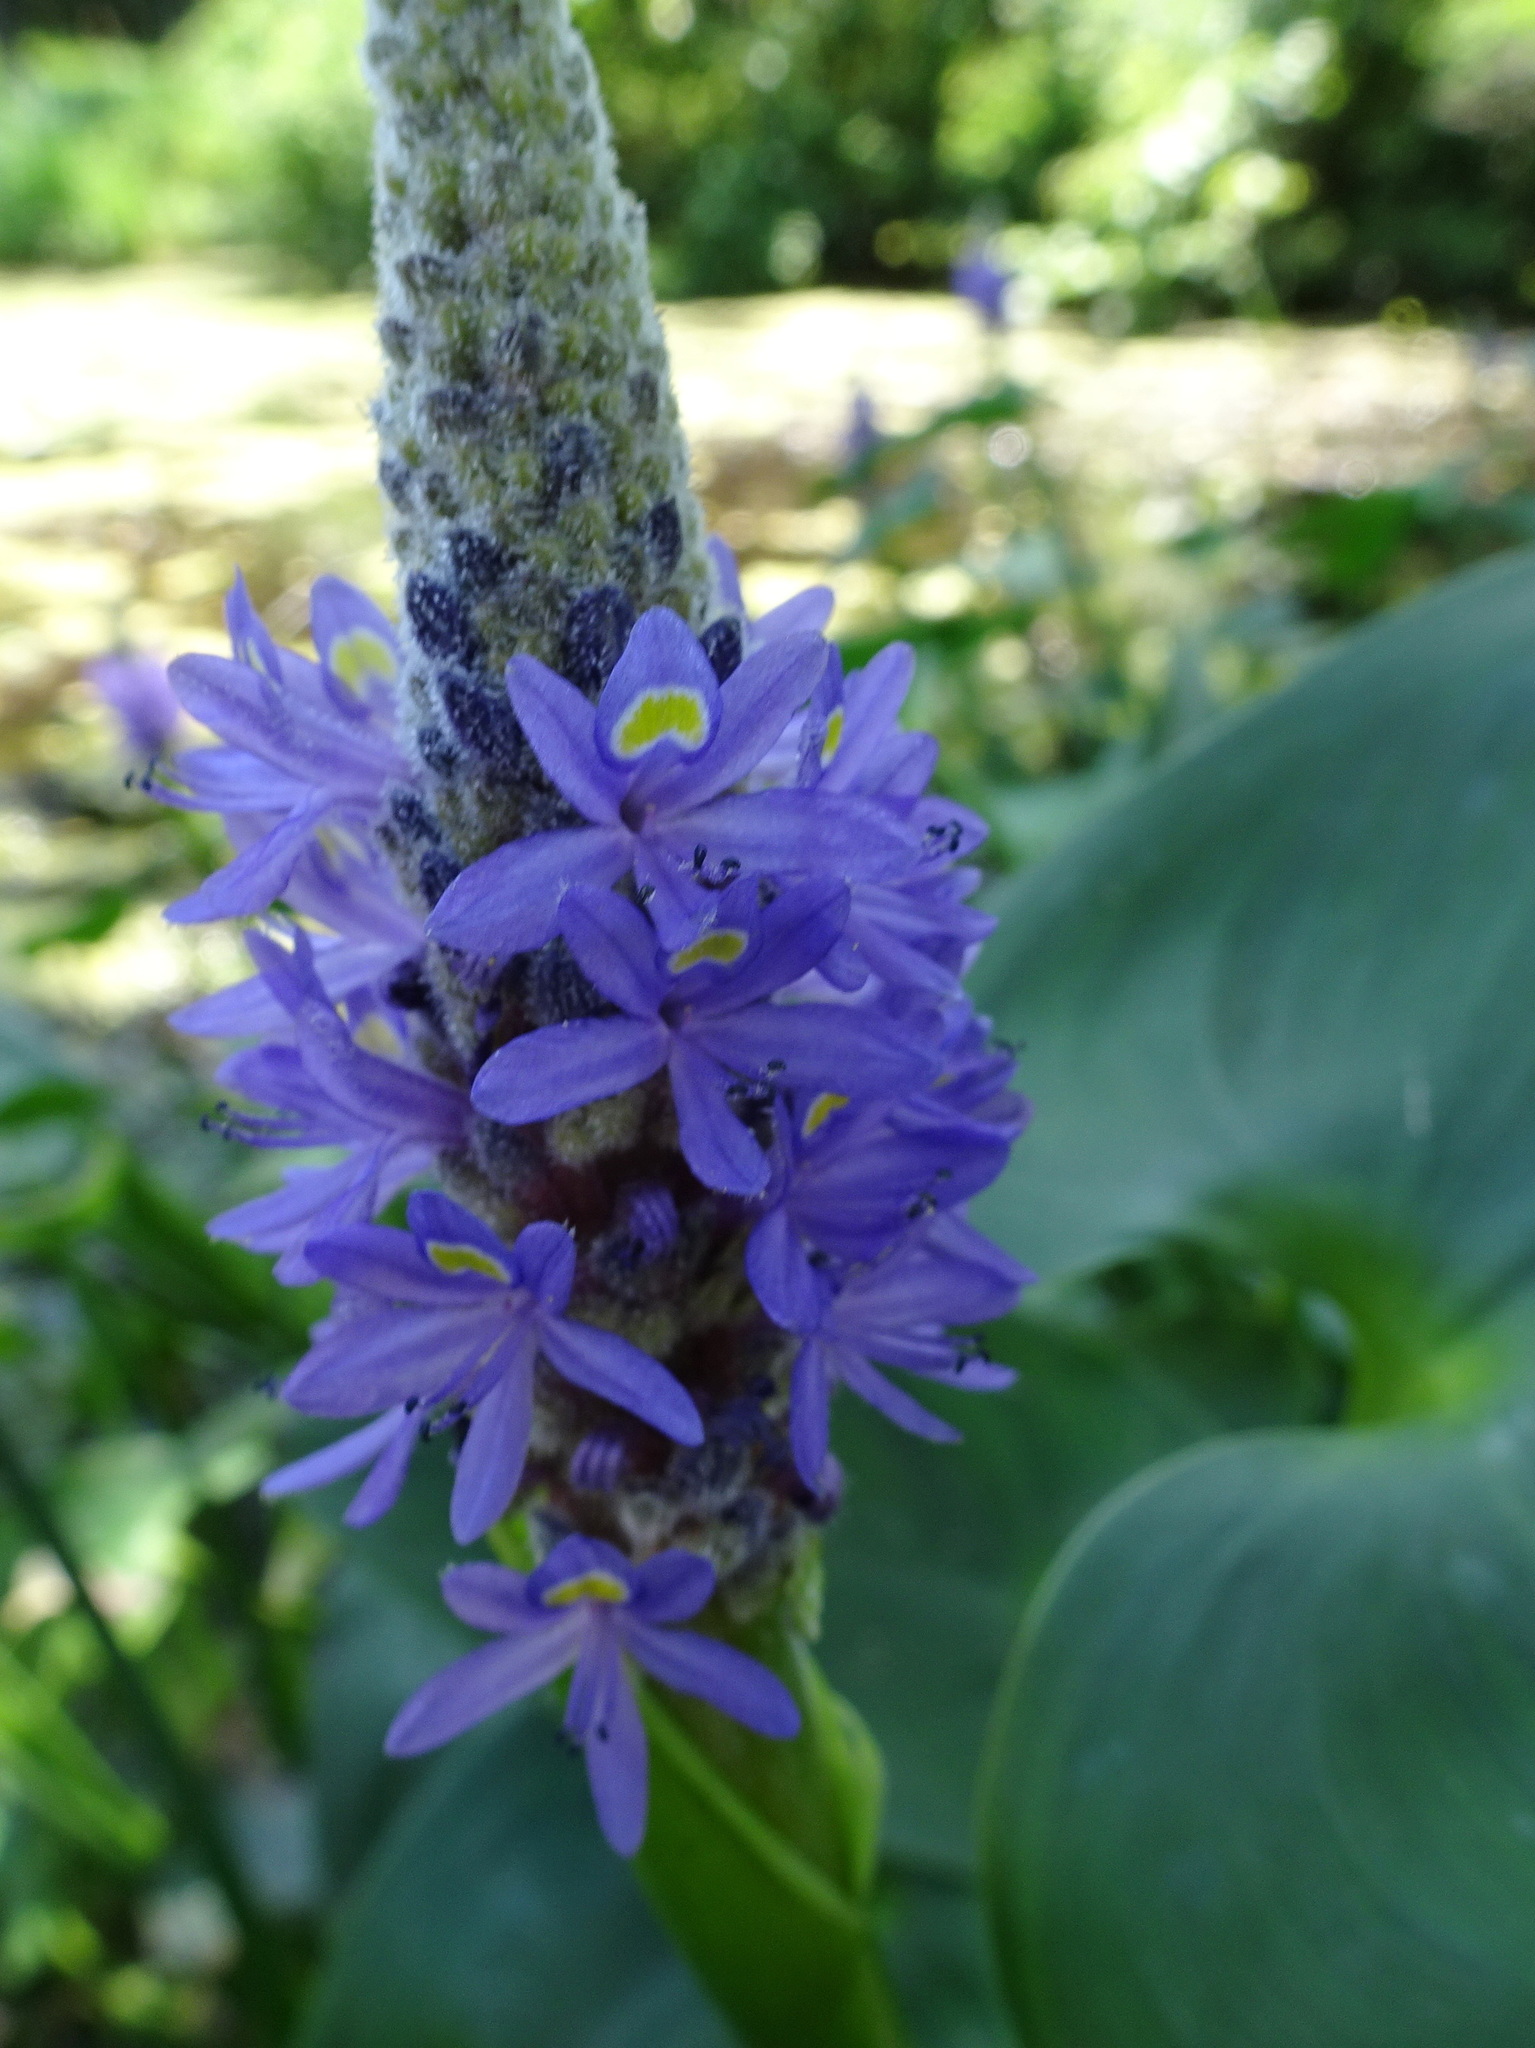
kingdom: Plantae
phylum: Tracheophyta
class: Liliopsida
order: Commelinales
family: Pontederiaceae
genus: Pontederia
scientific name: Pontederia cordata
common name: Pickerelweed
